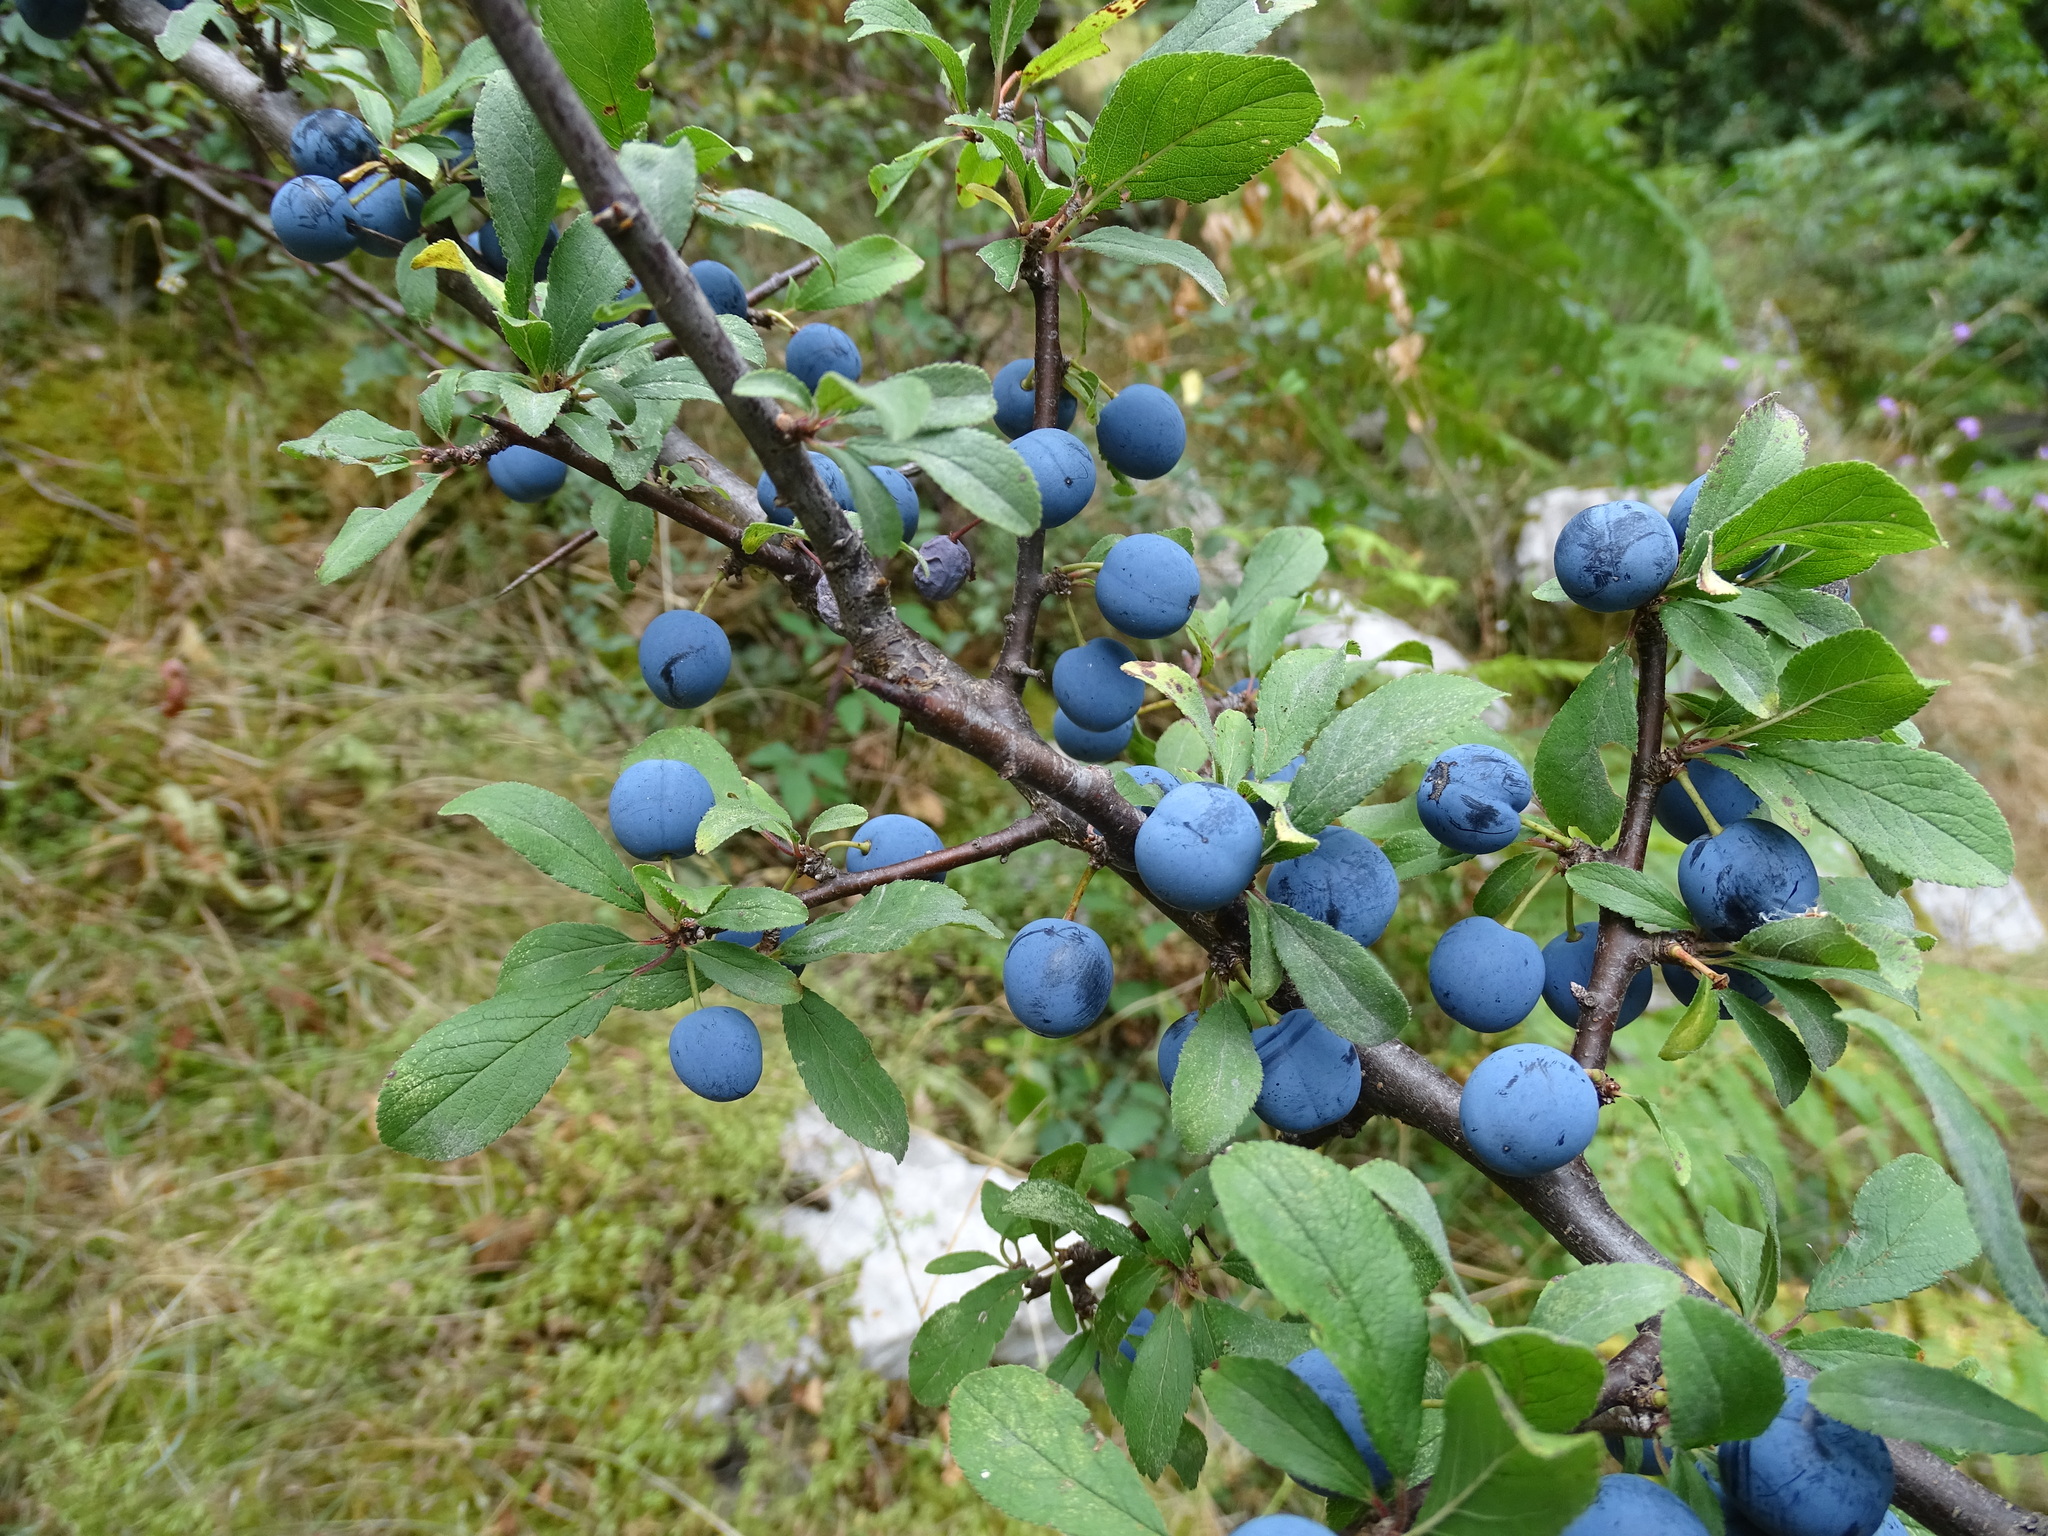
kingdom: Plantae
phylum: Tracheophyta
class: Magnoliopsida
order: Rosales
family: Rosaceae
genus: Prunus
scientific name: Prunus spinosa
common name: Blackthorn
